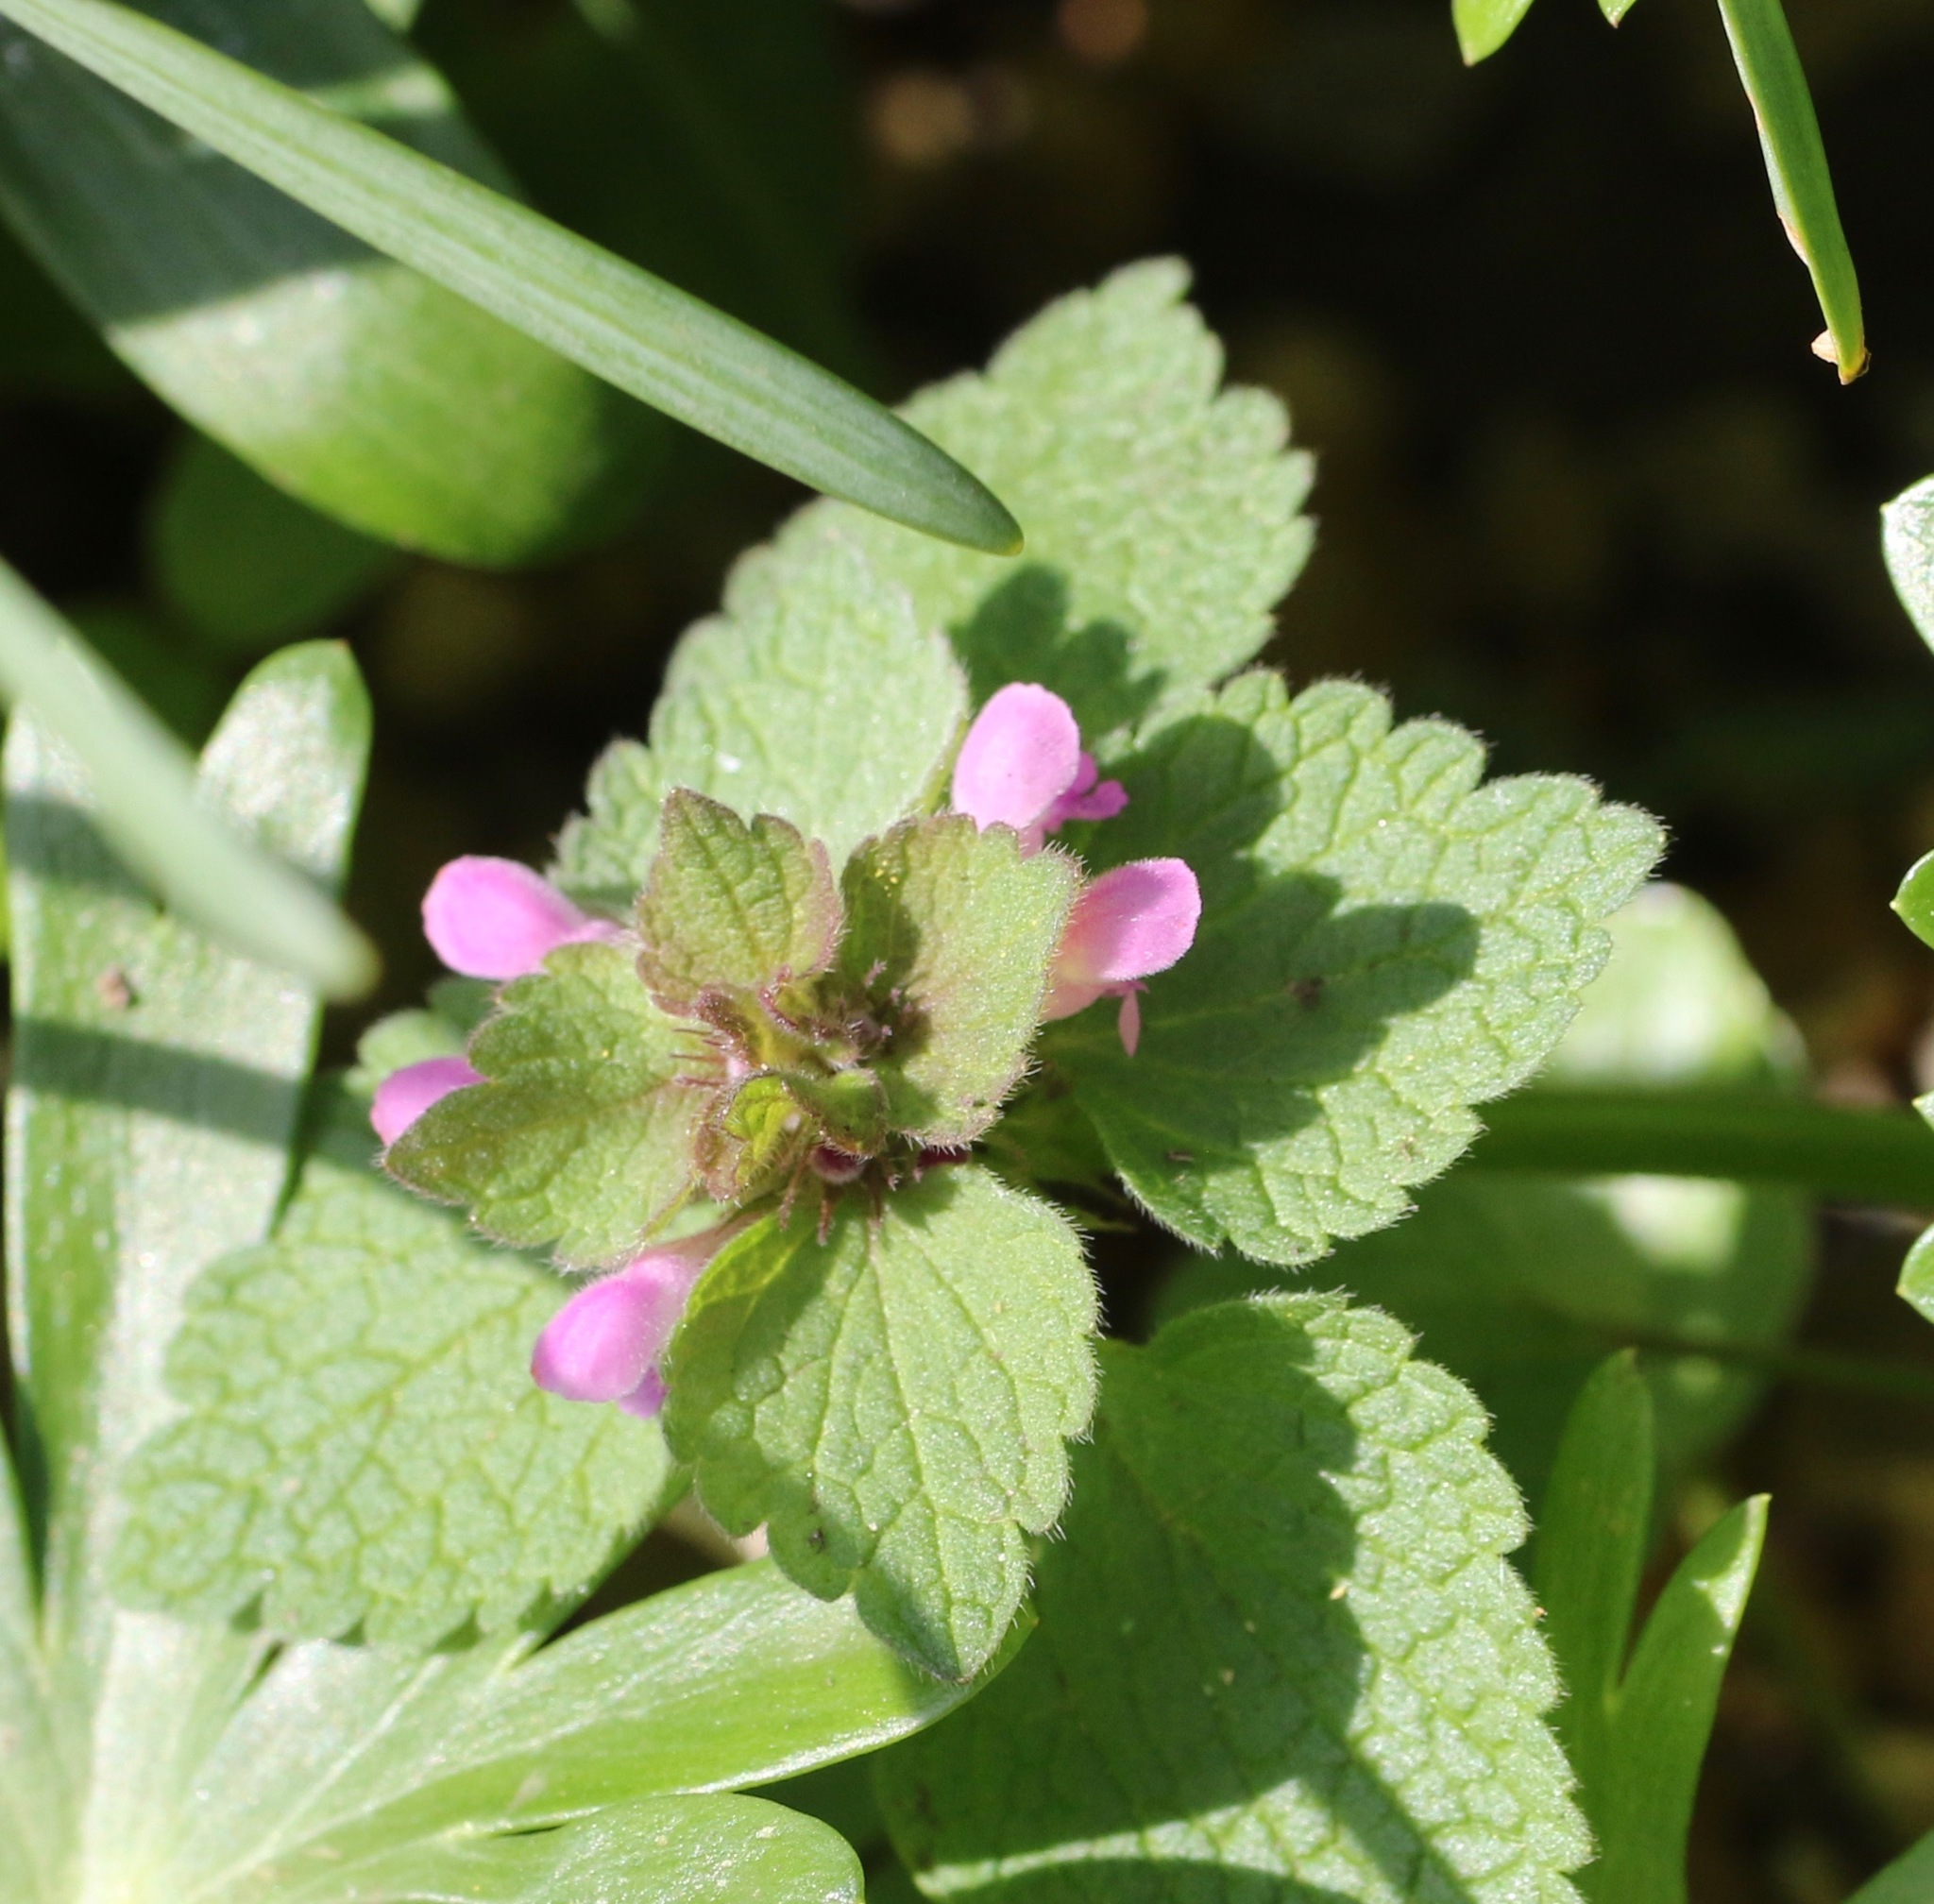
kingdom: Plantae
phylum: Tracheophyta
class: Magnoliopsida
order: Lamiales
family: Lamiaceae
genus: Lamium
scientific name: Lamium purpureum
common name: Red dead-nettle
